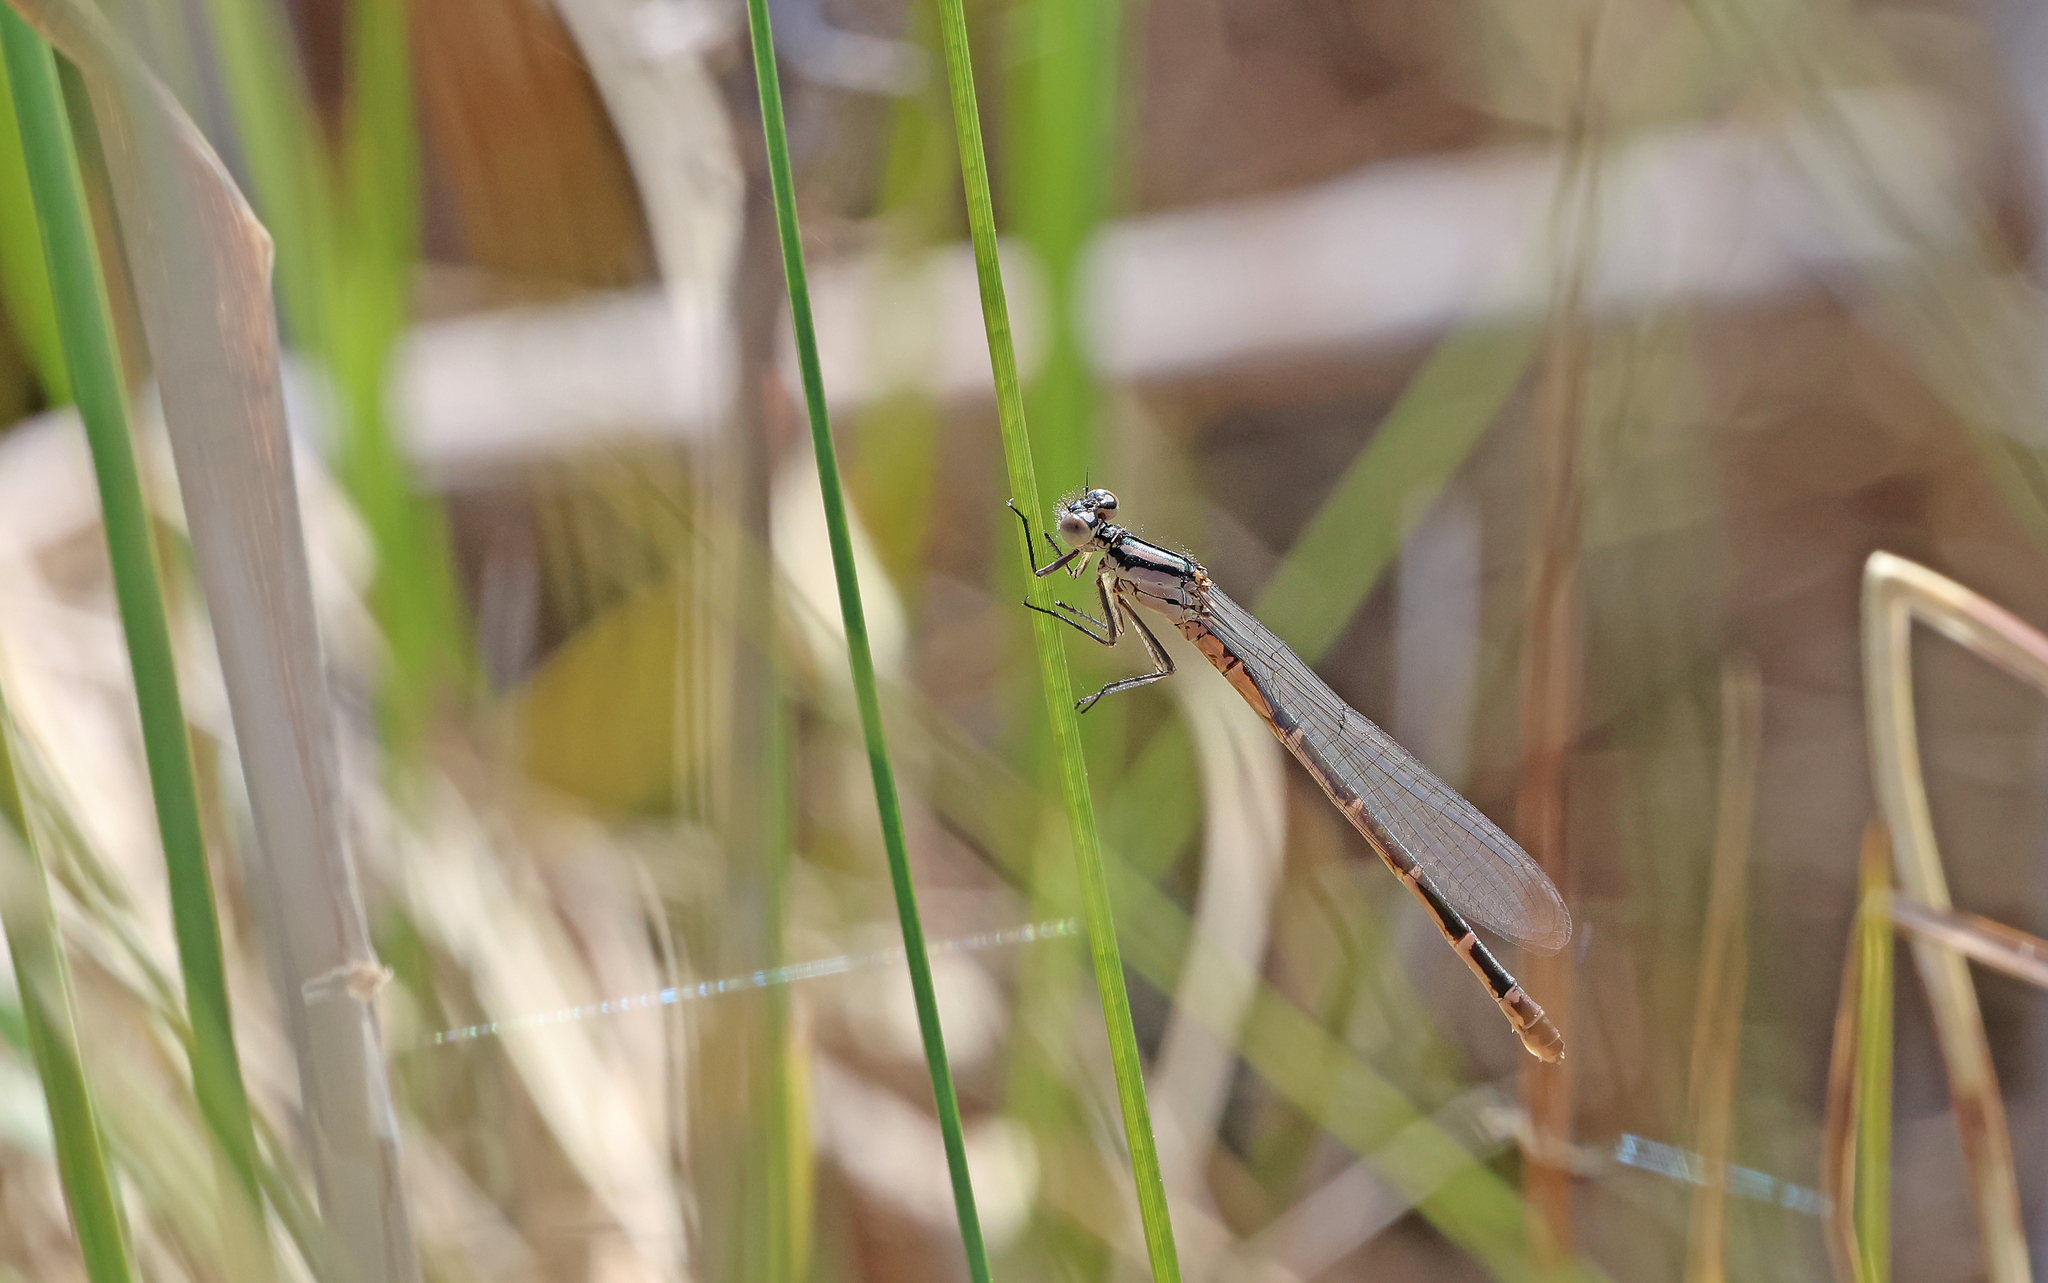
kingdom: Animalia
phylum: Arthropoda
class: Insecta
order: Odonata
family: Coenagrionidae
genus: Enallagma
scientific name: Enallagma cyathigerum
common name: Common blue damselfly
